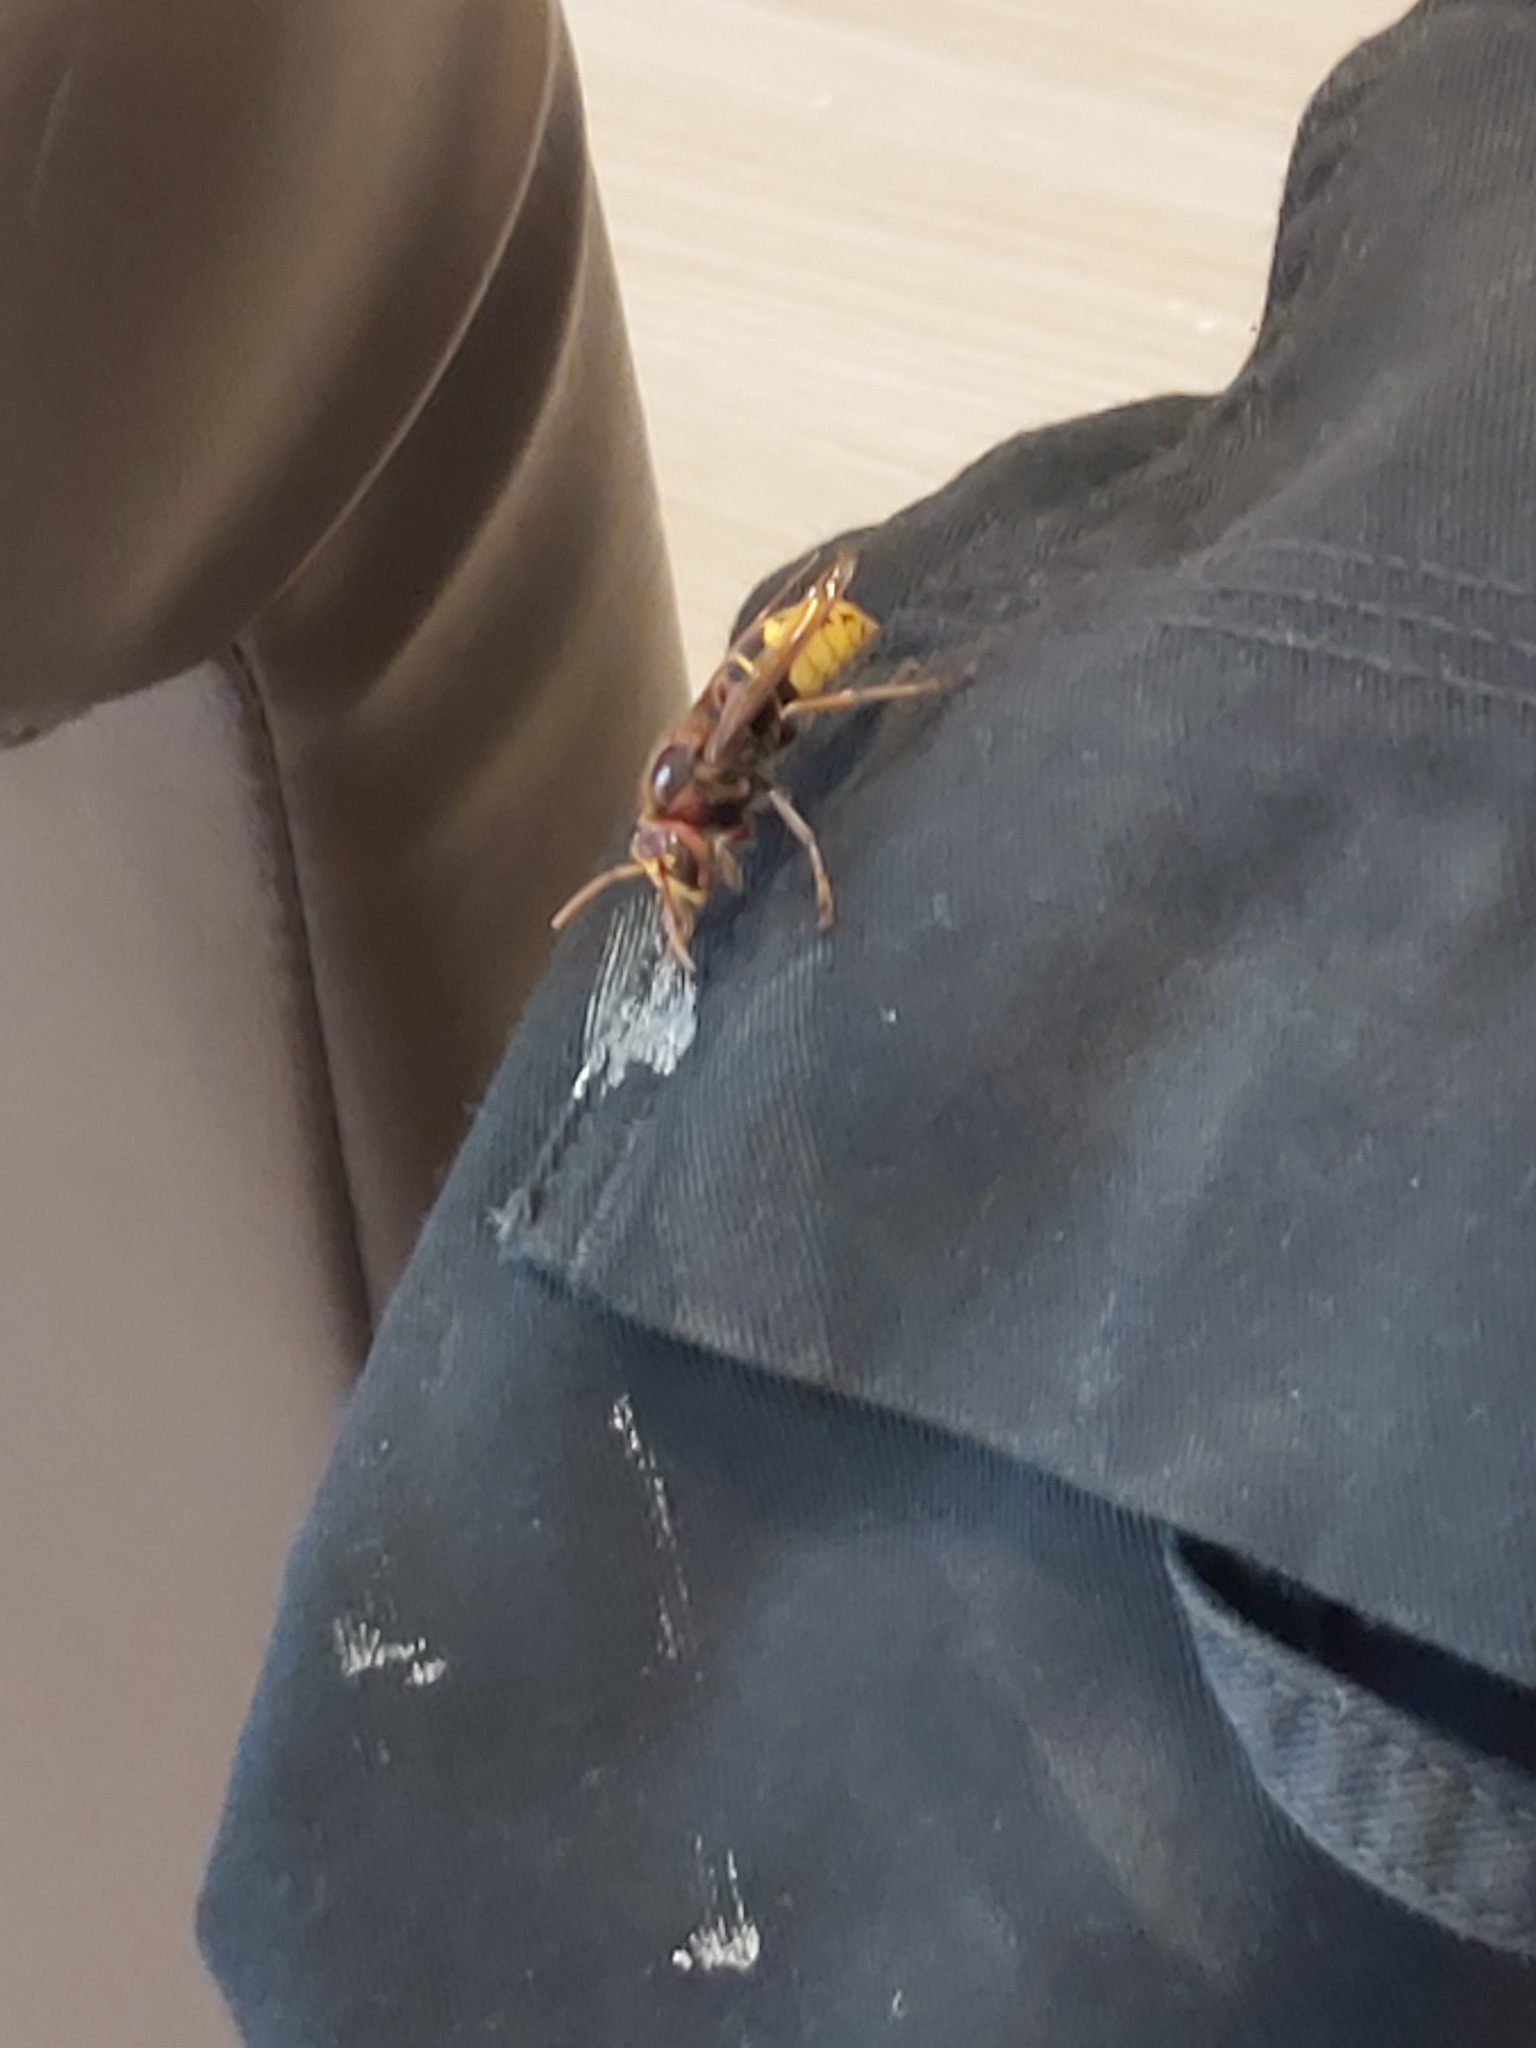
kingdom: Animalia
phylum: Arthropoda
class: Insecta
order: Hymenoptera
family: Vespidae
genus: Vespa
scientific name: Vespa crabro
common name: Hornet
